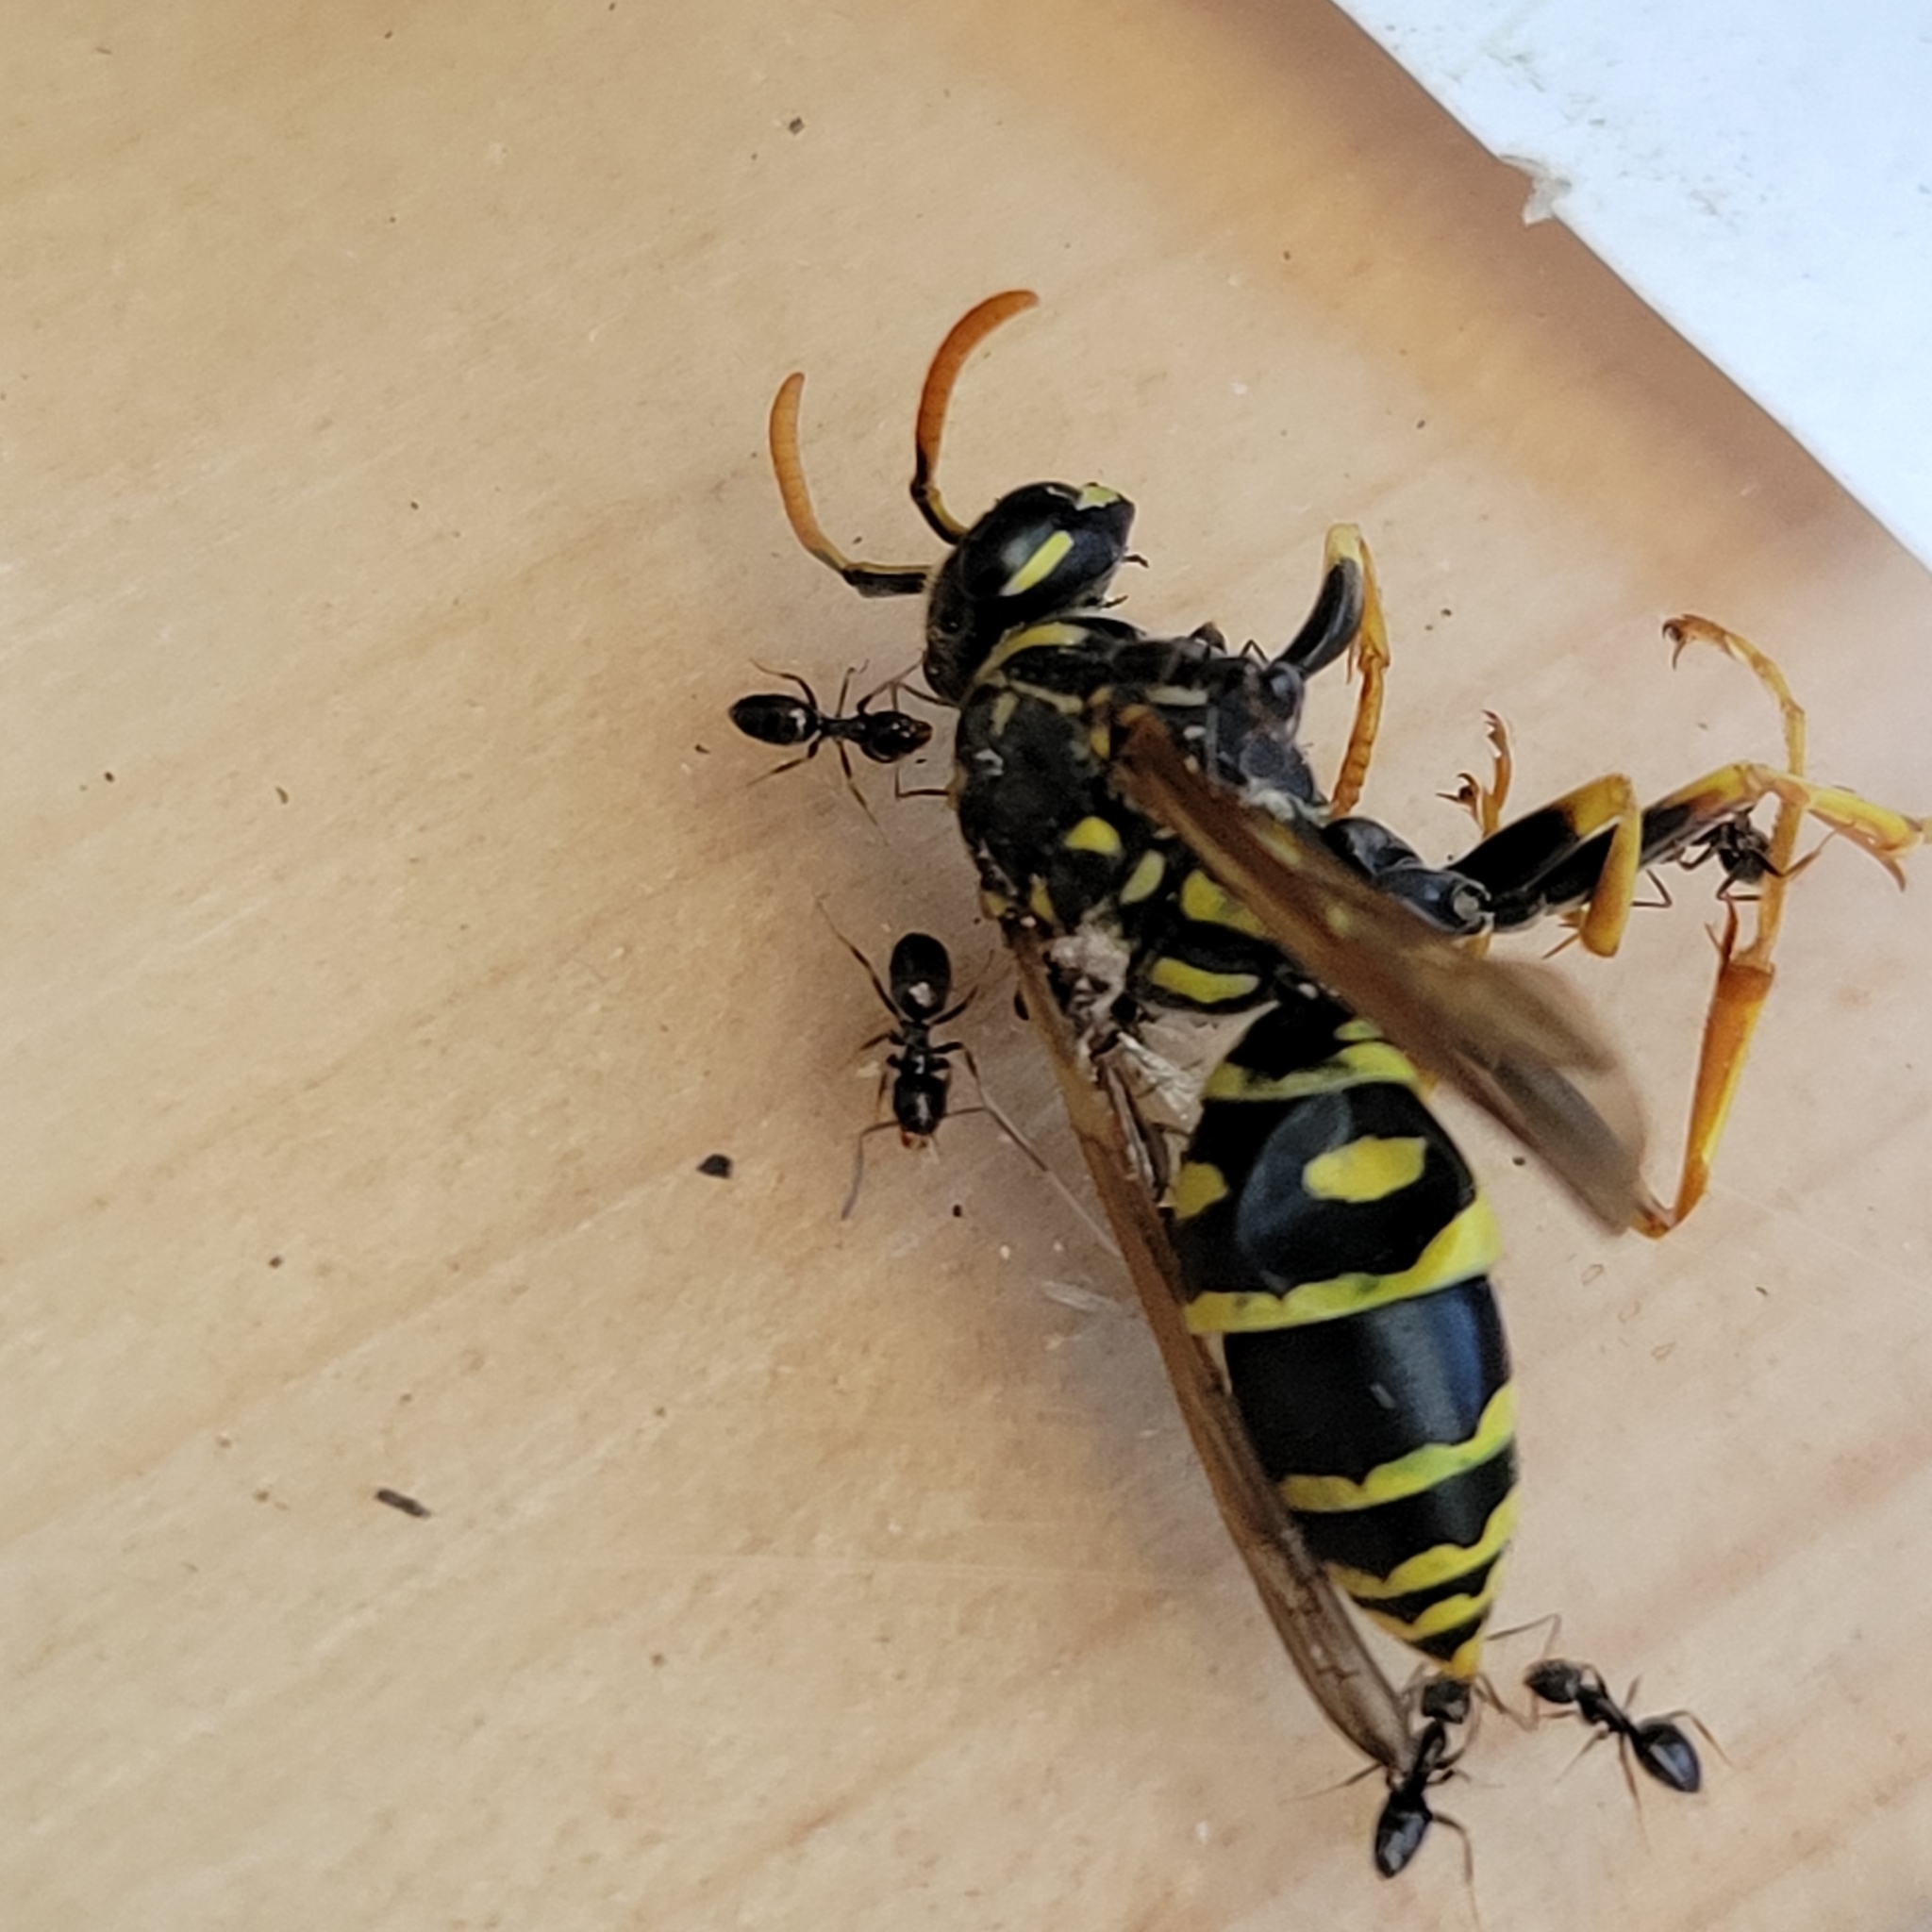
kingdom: Animalia
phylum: Arthropoda
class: Insecta
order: Hymenoptera
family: Eumenidae
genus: Polistes
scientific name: Polistes dominula
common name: Paper wasp
